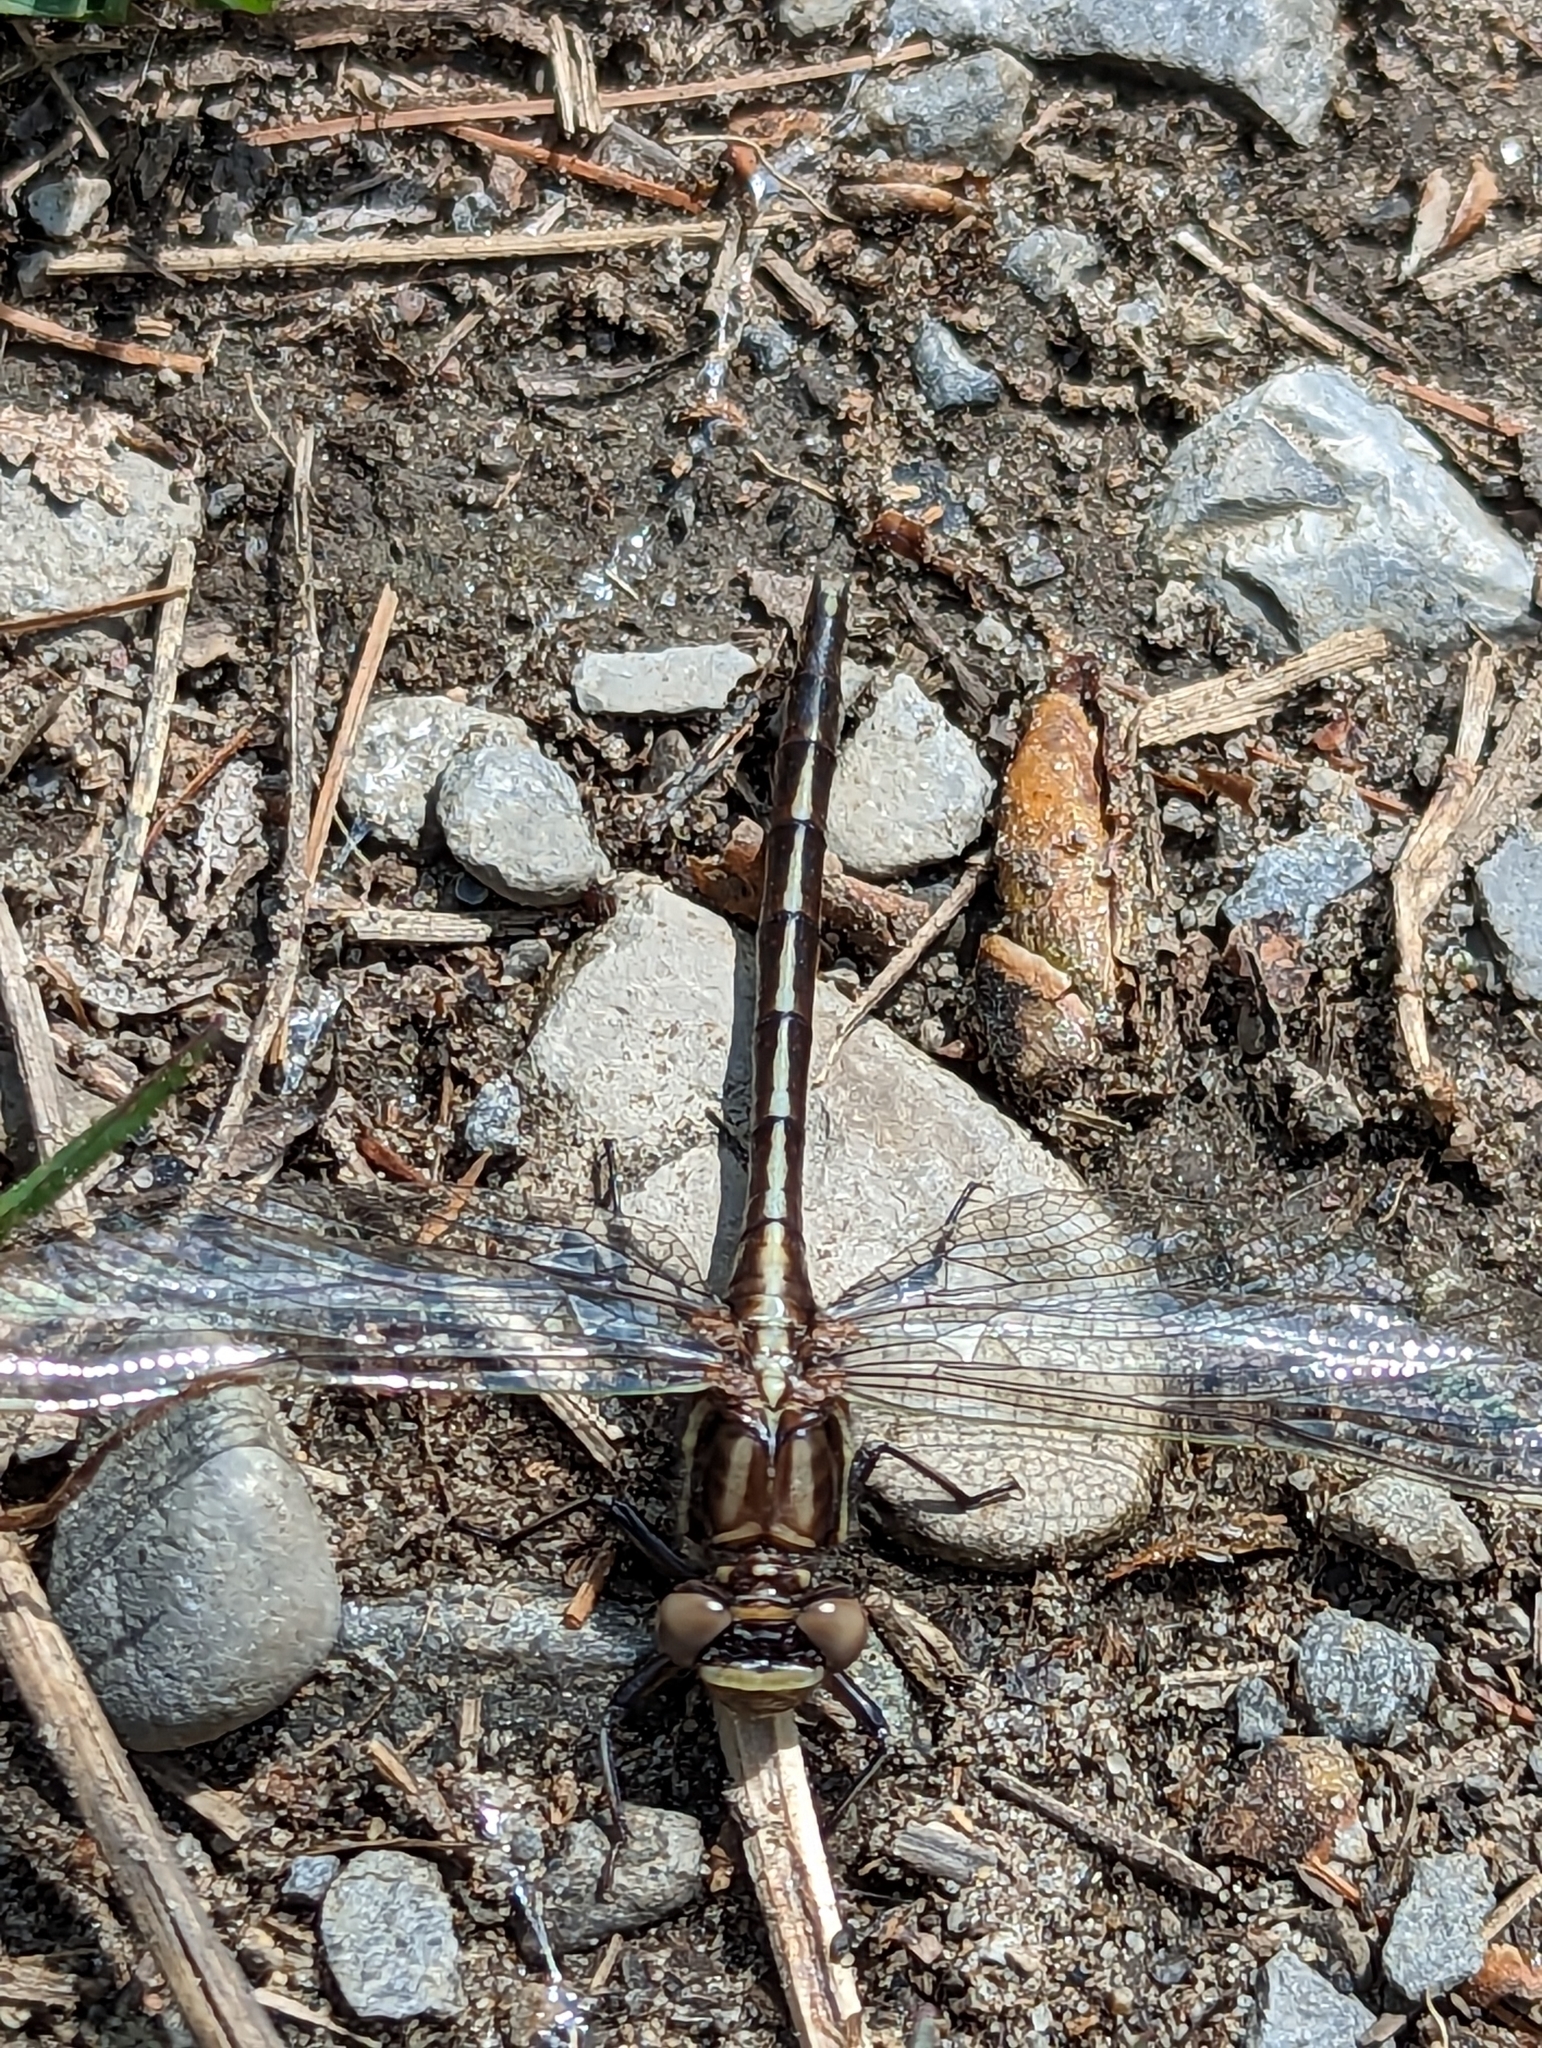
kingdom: Animalia
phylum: Arthropoda
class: Insecta
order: Odonata
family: Gomphidae
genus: Phanogomphus
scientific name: Phanogomphus spicatus
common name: Dusky clubtail
